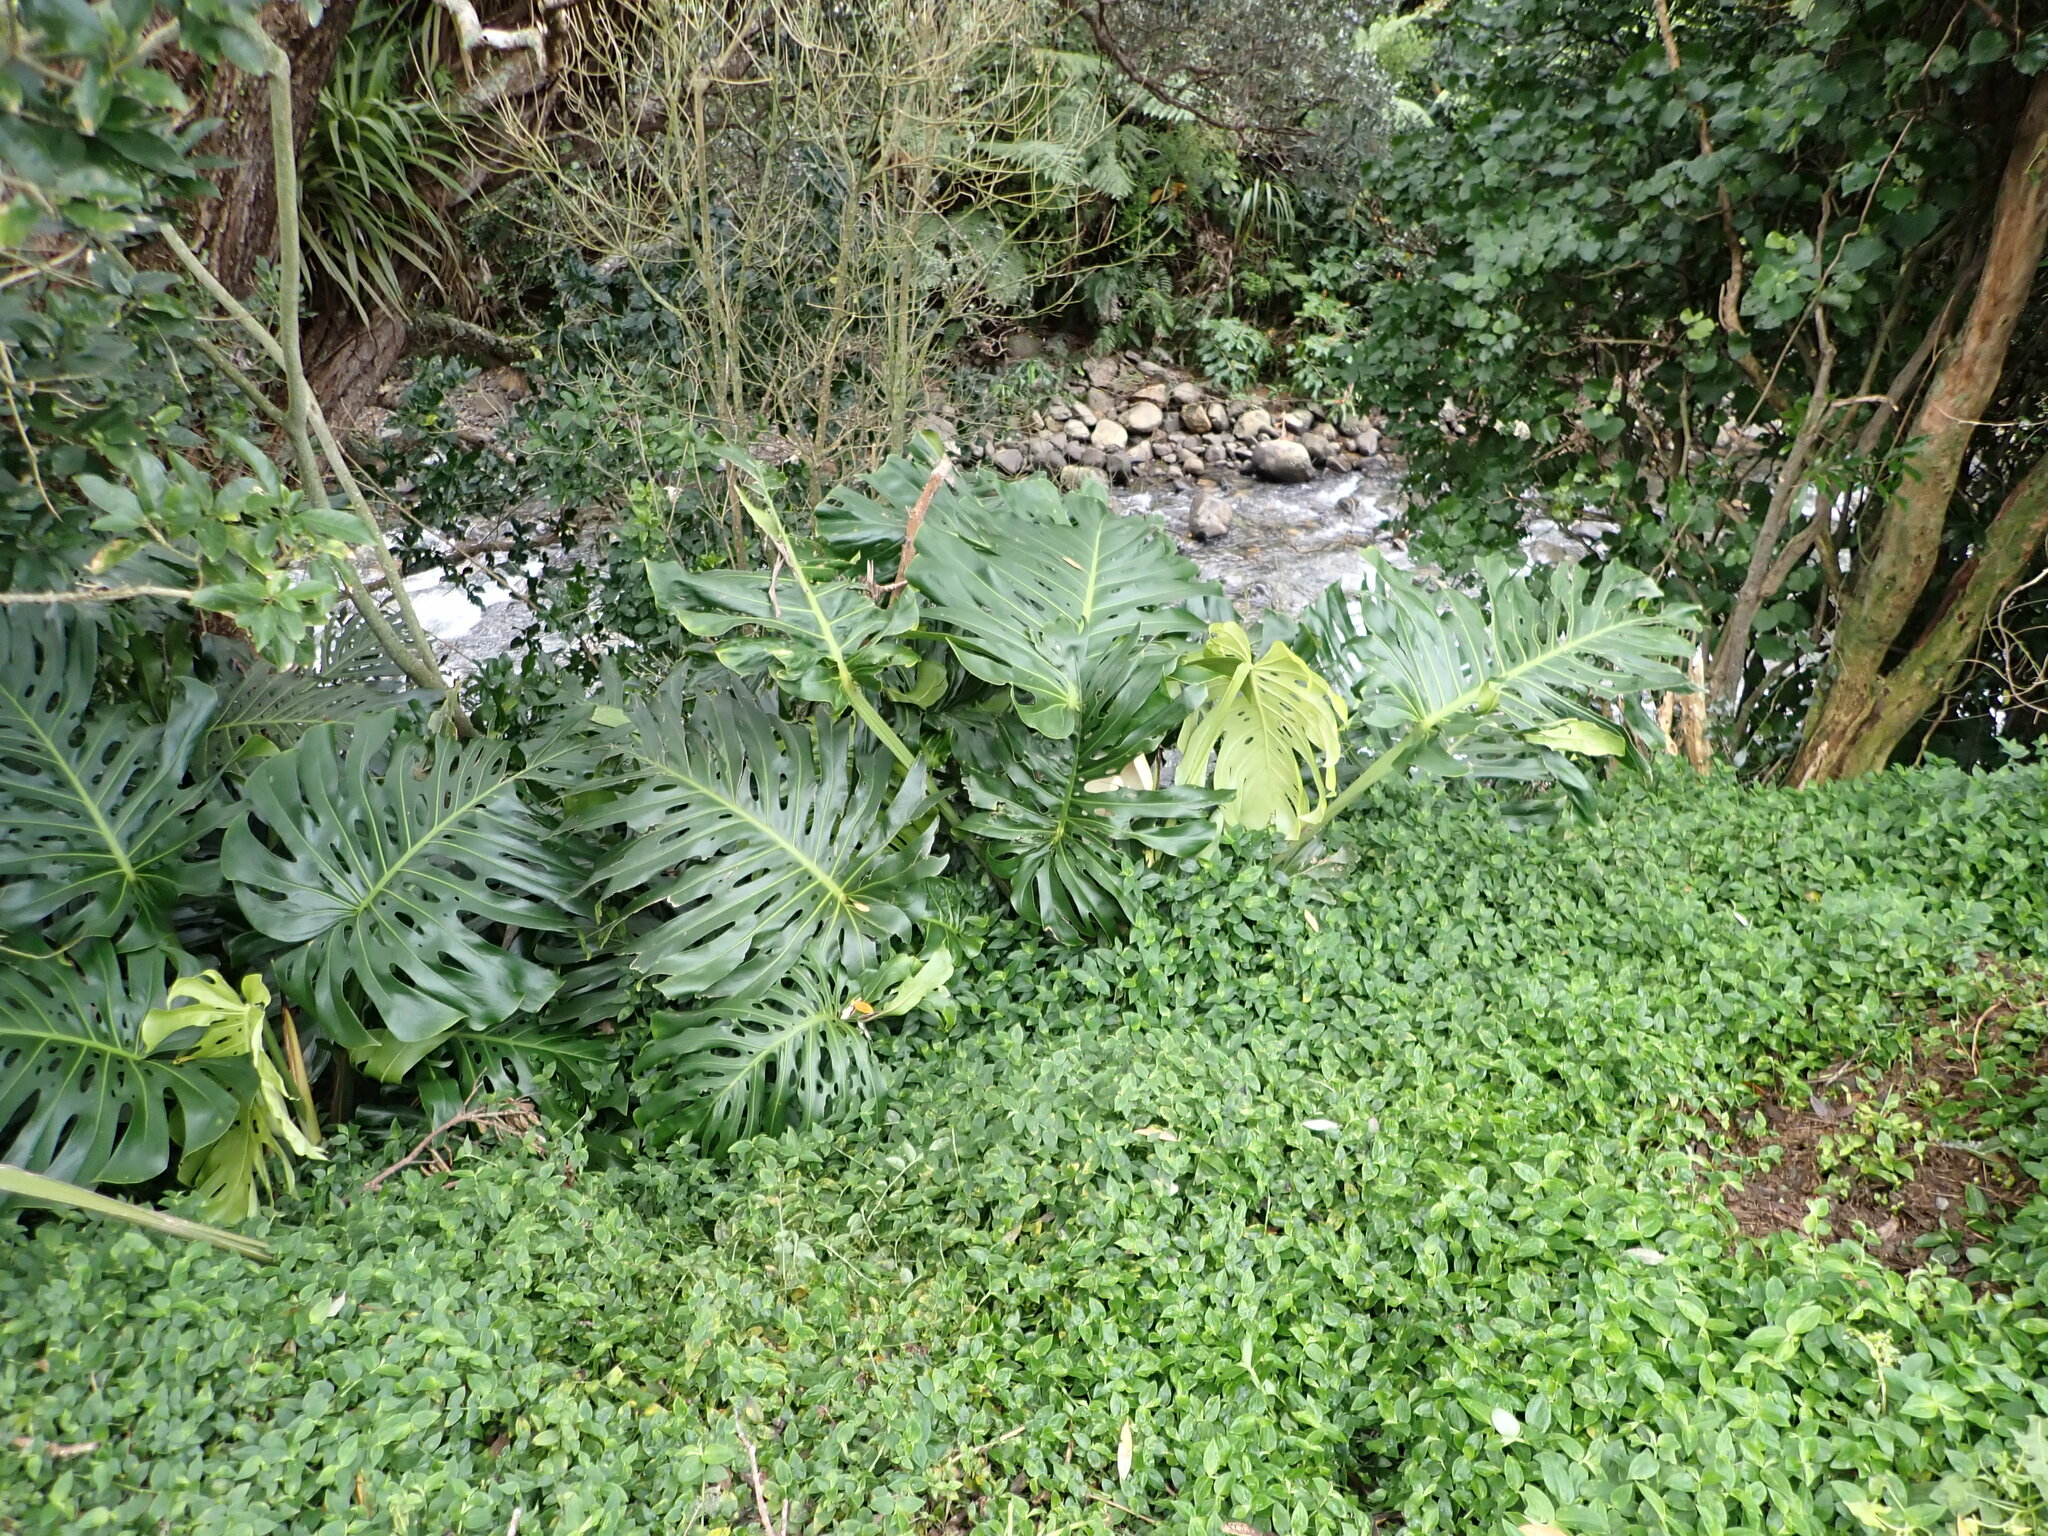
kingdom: Plantae
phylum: Tracheophyta
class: Liliopsida
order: Alismatales
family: Araceae
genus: Monstera
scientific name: Monstera deliciosa
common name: Cut-leaf-philodendron
